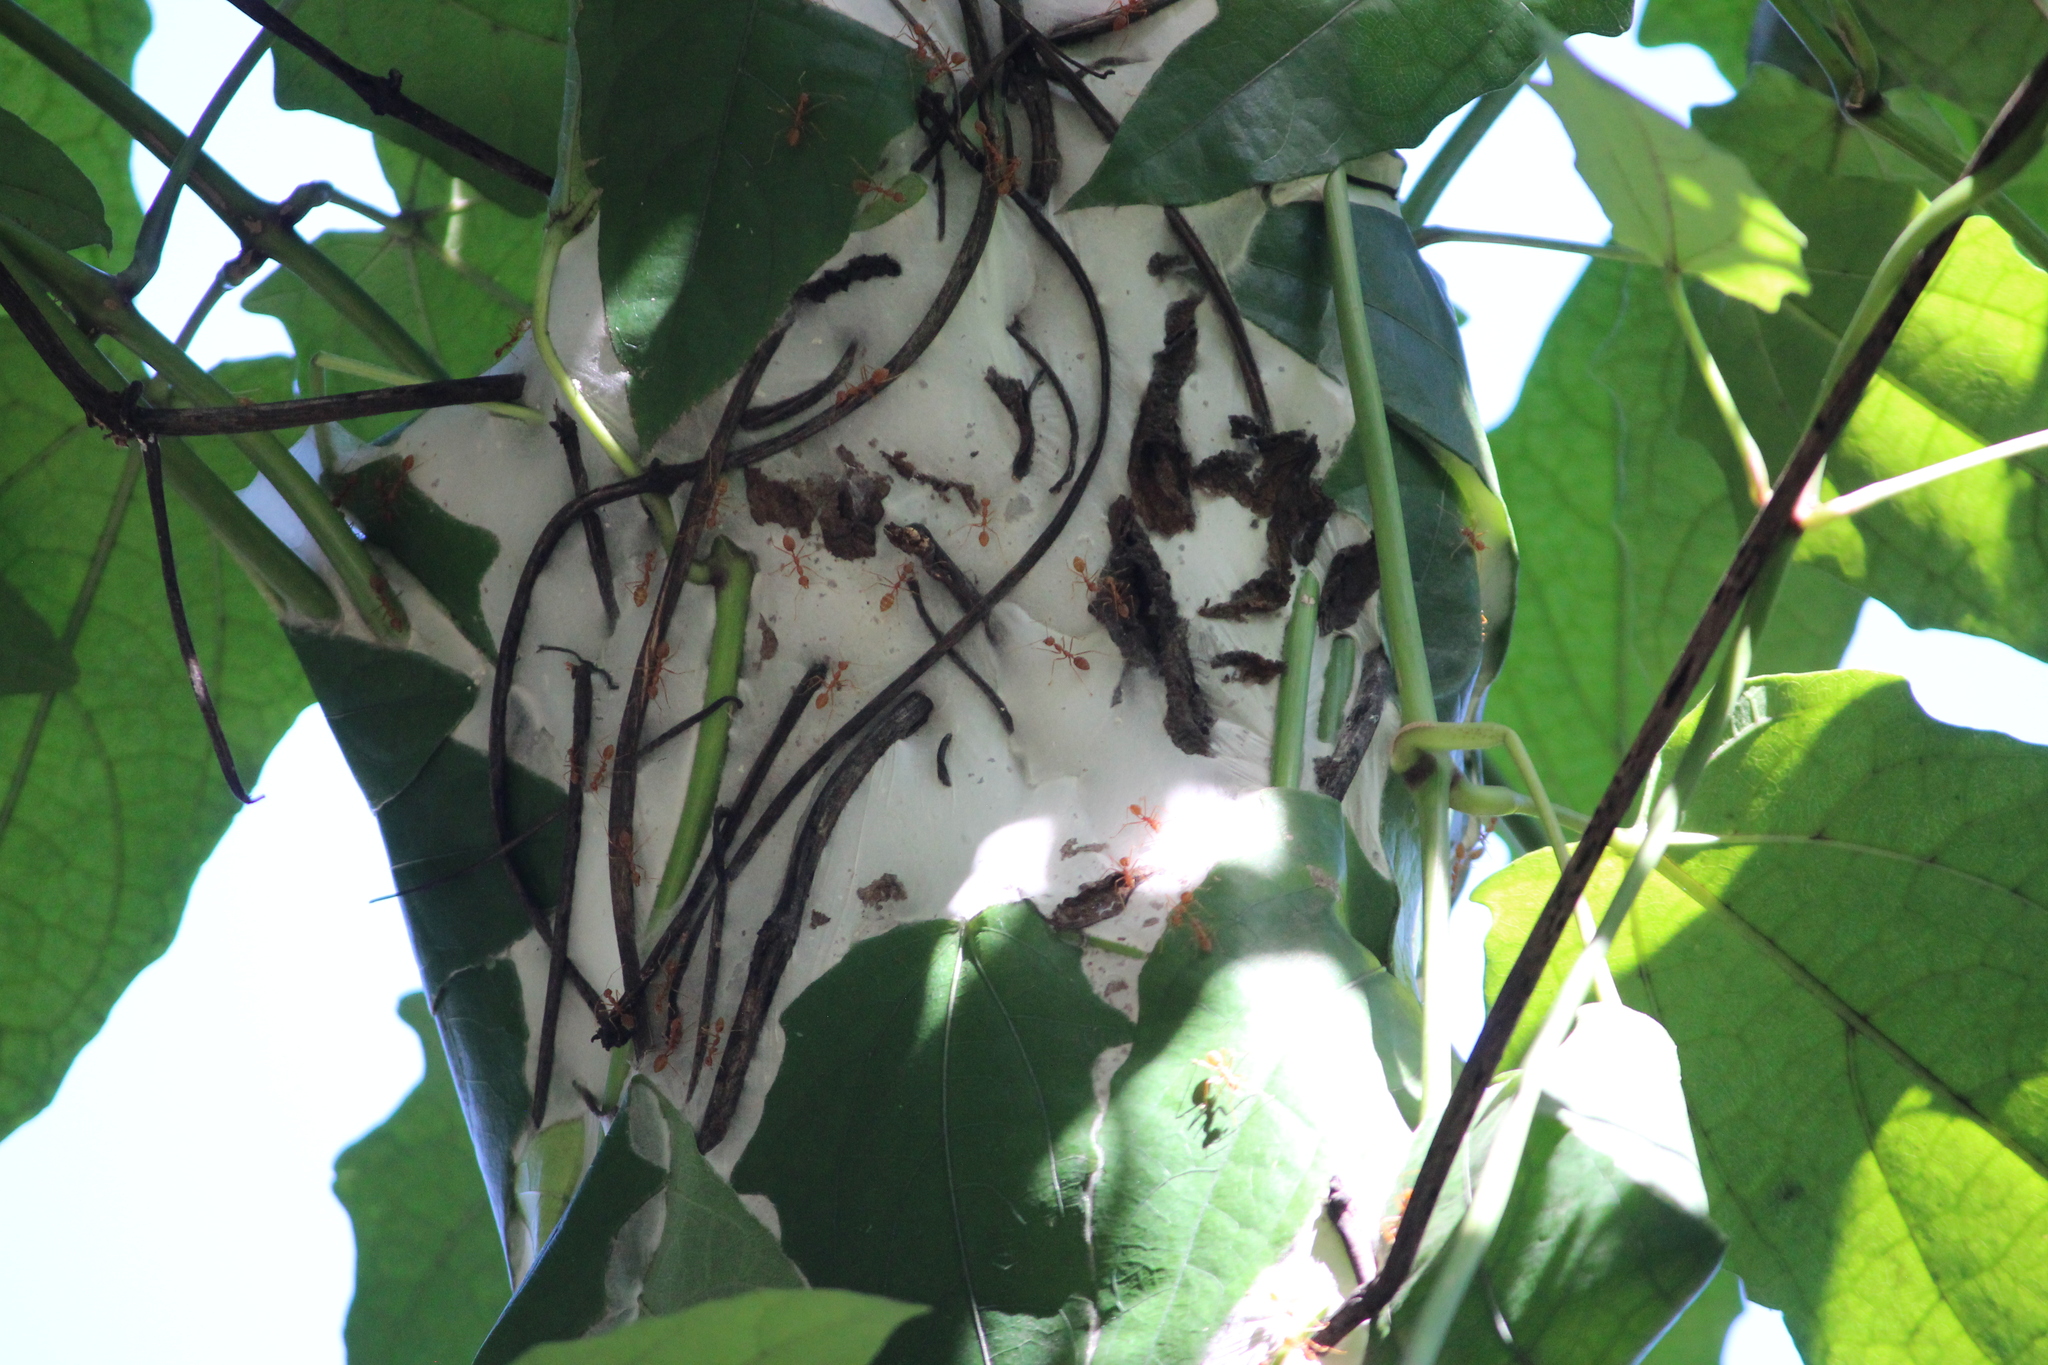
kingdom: Animalia
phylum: Arthropoda
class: Insecta
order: Hymenoptera
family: Formicidae
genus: Oecophylla
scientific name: Oecophylla smaragdina
